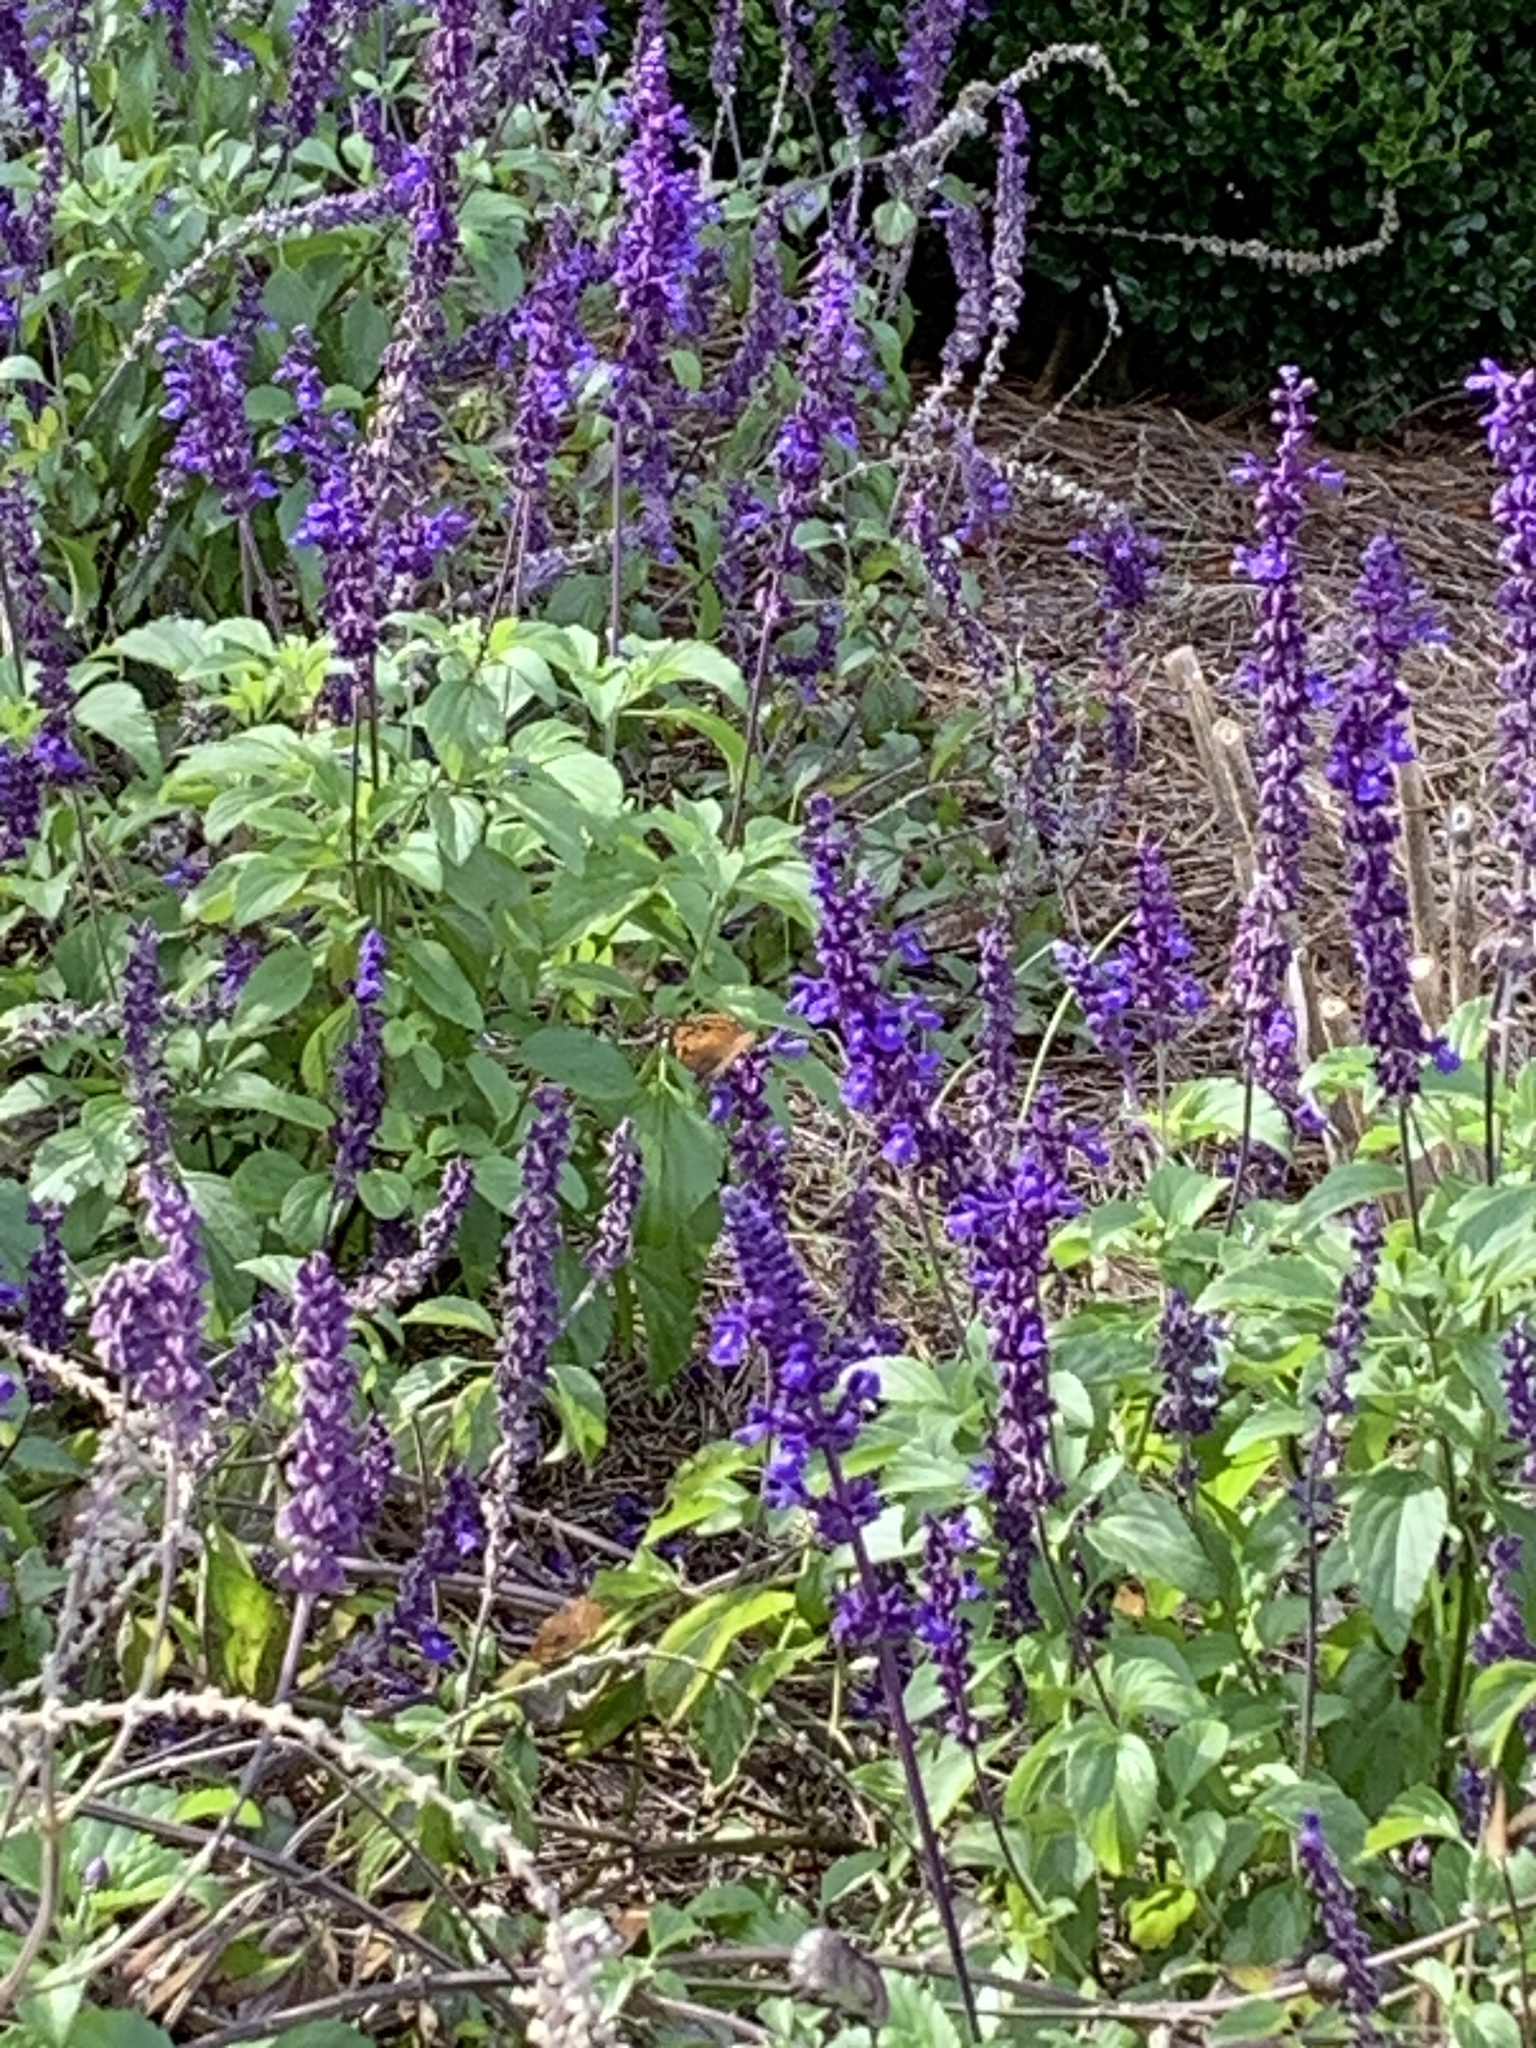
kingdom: Animalia
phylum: Arthropoda
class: Insecta
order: Lepidoptera
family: Nymphalidae
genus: Vanessa
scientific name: Vanessa virginiensis
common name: American lady
